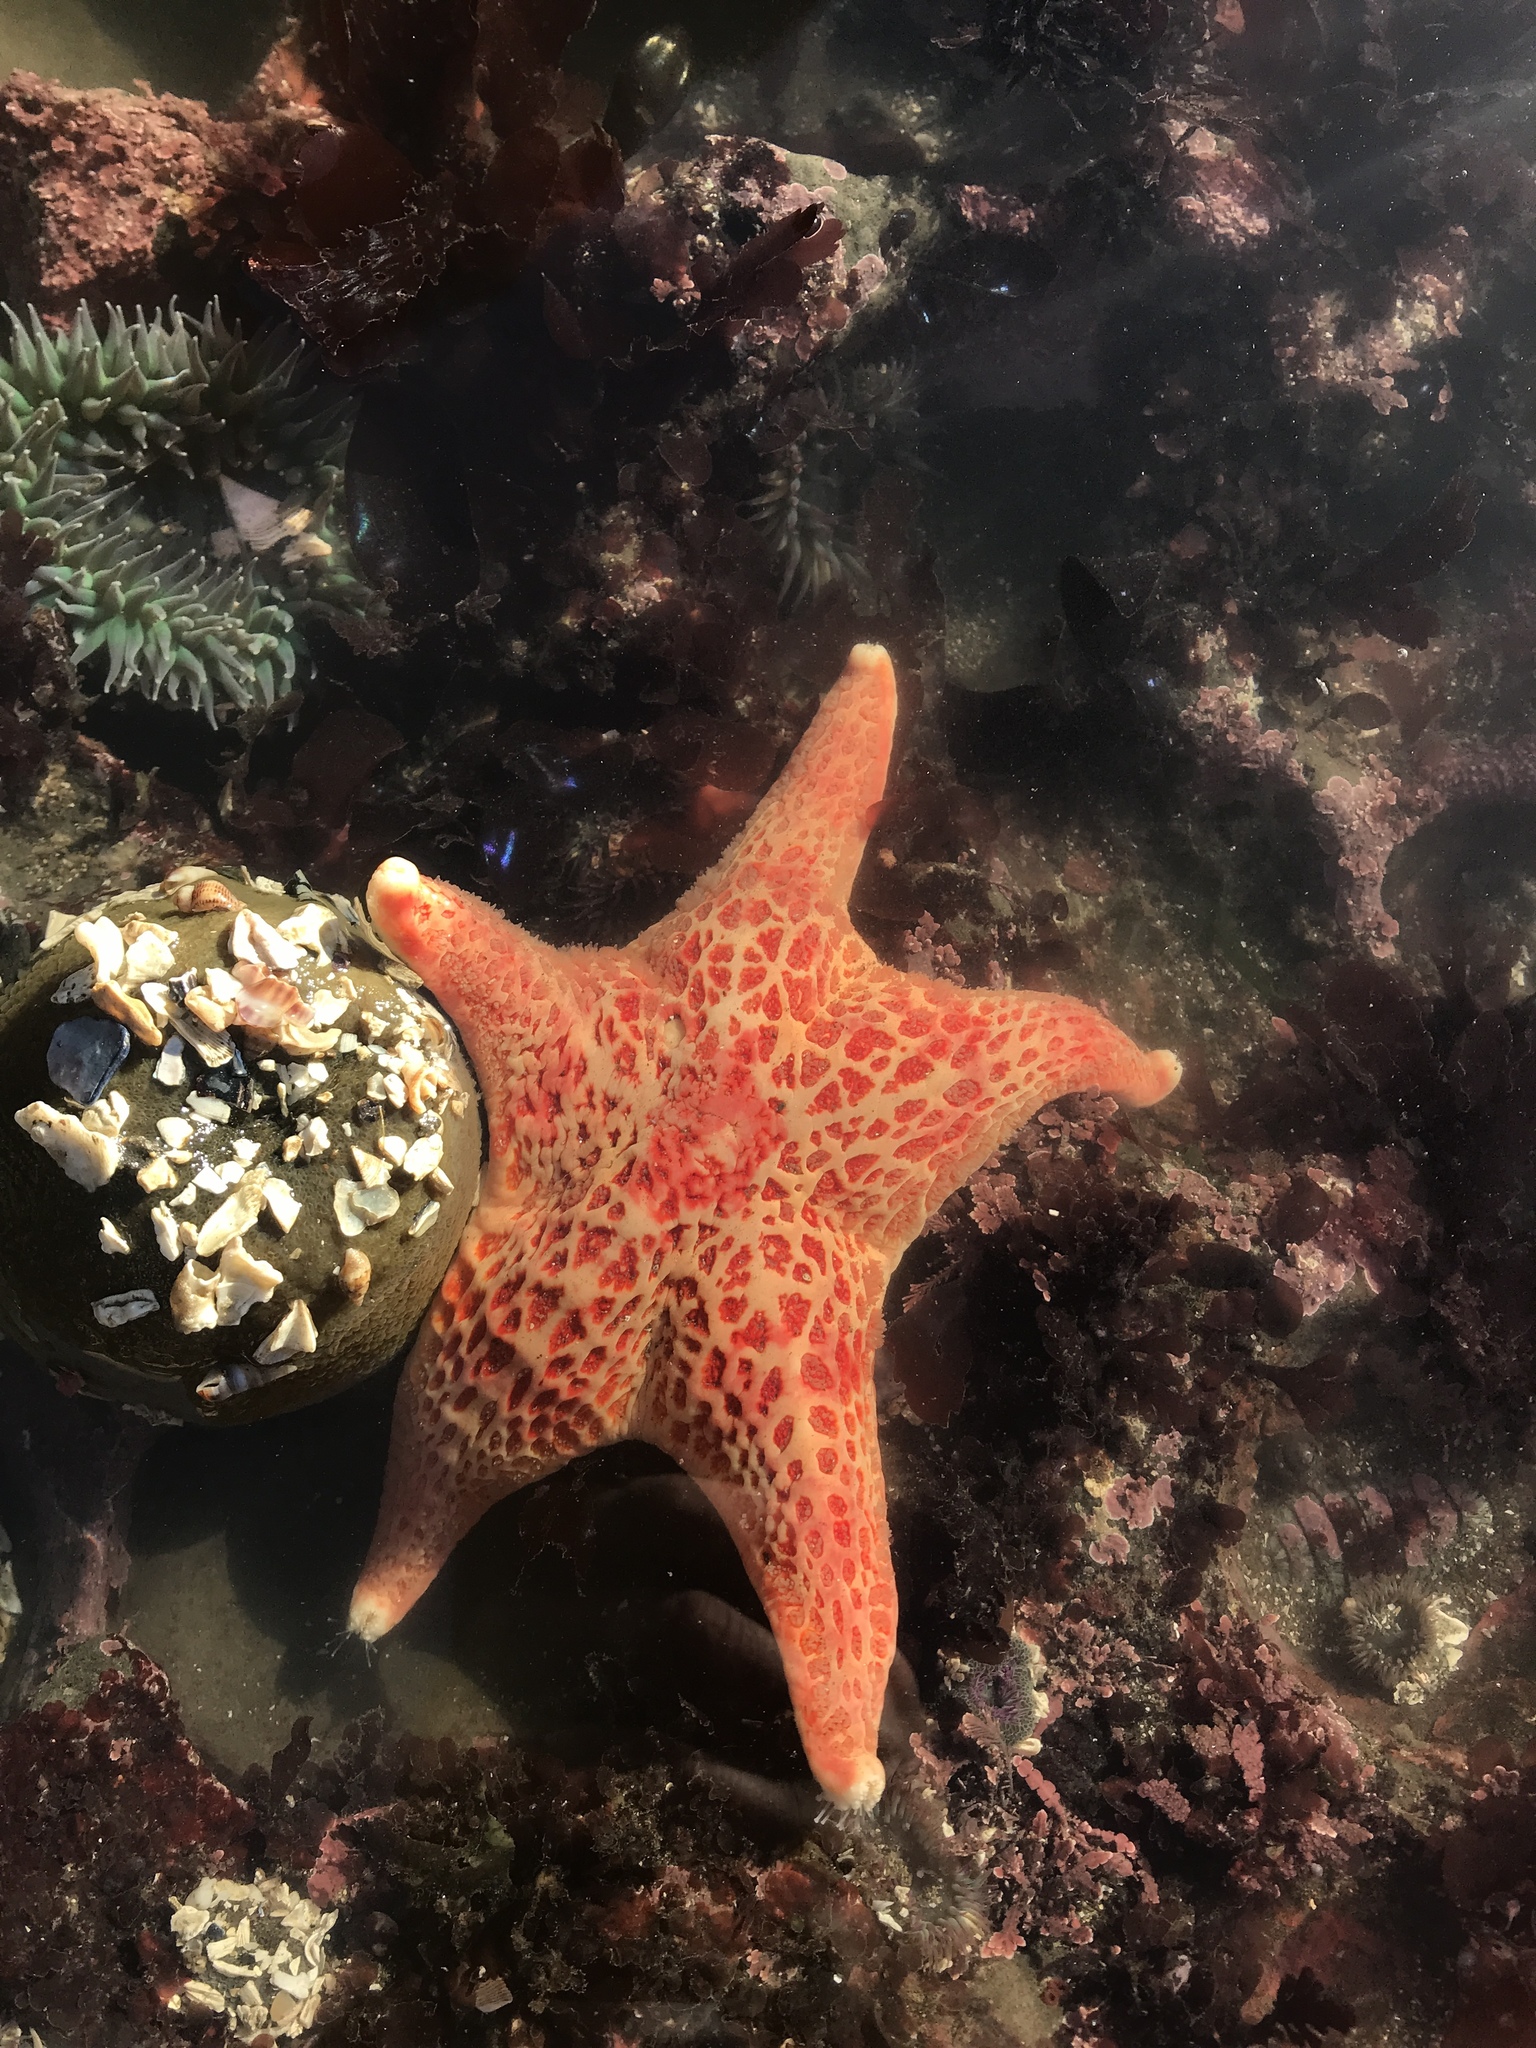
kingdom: Animalia
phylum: Echinodermata
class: Asteroidea
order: Valvatida
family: Asteropseidae
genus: Dermasterias
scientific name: Dermasterias imbricata
